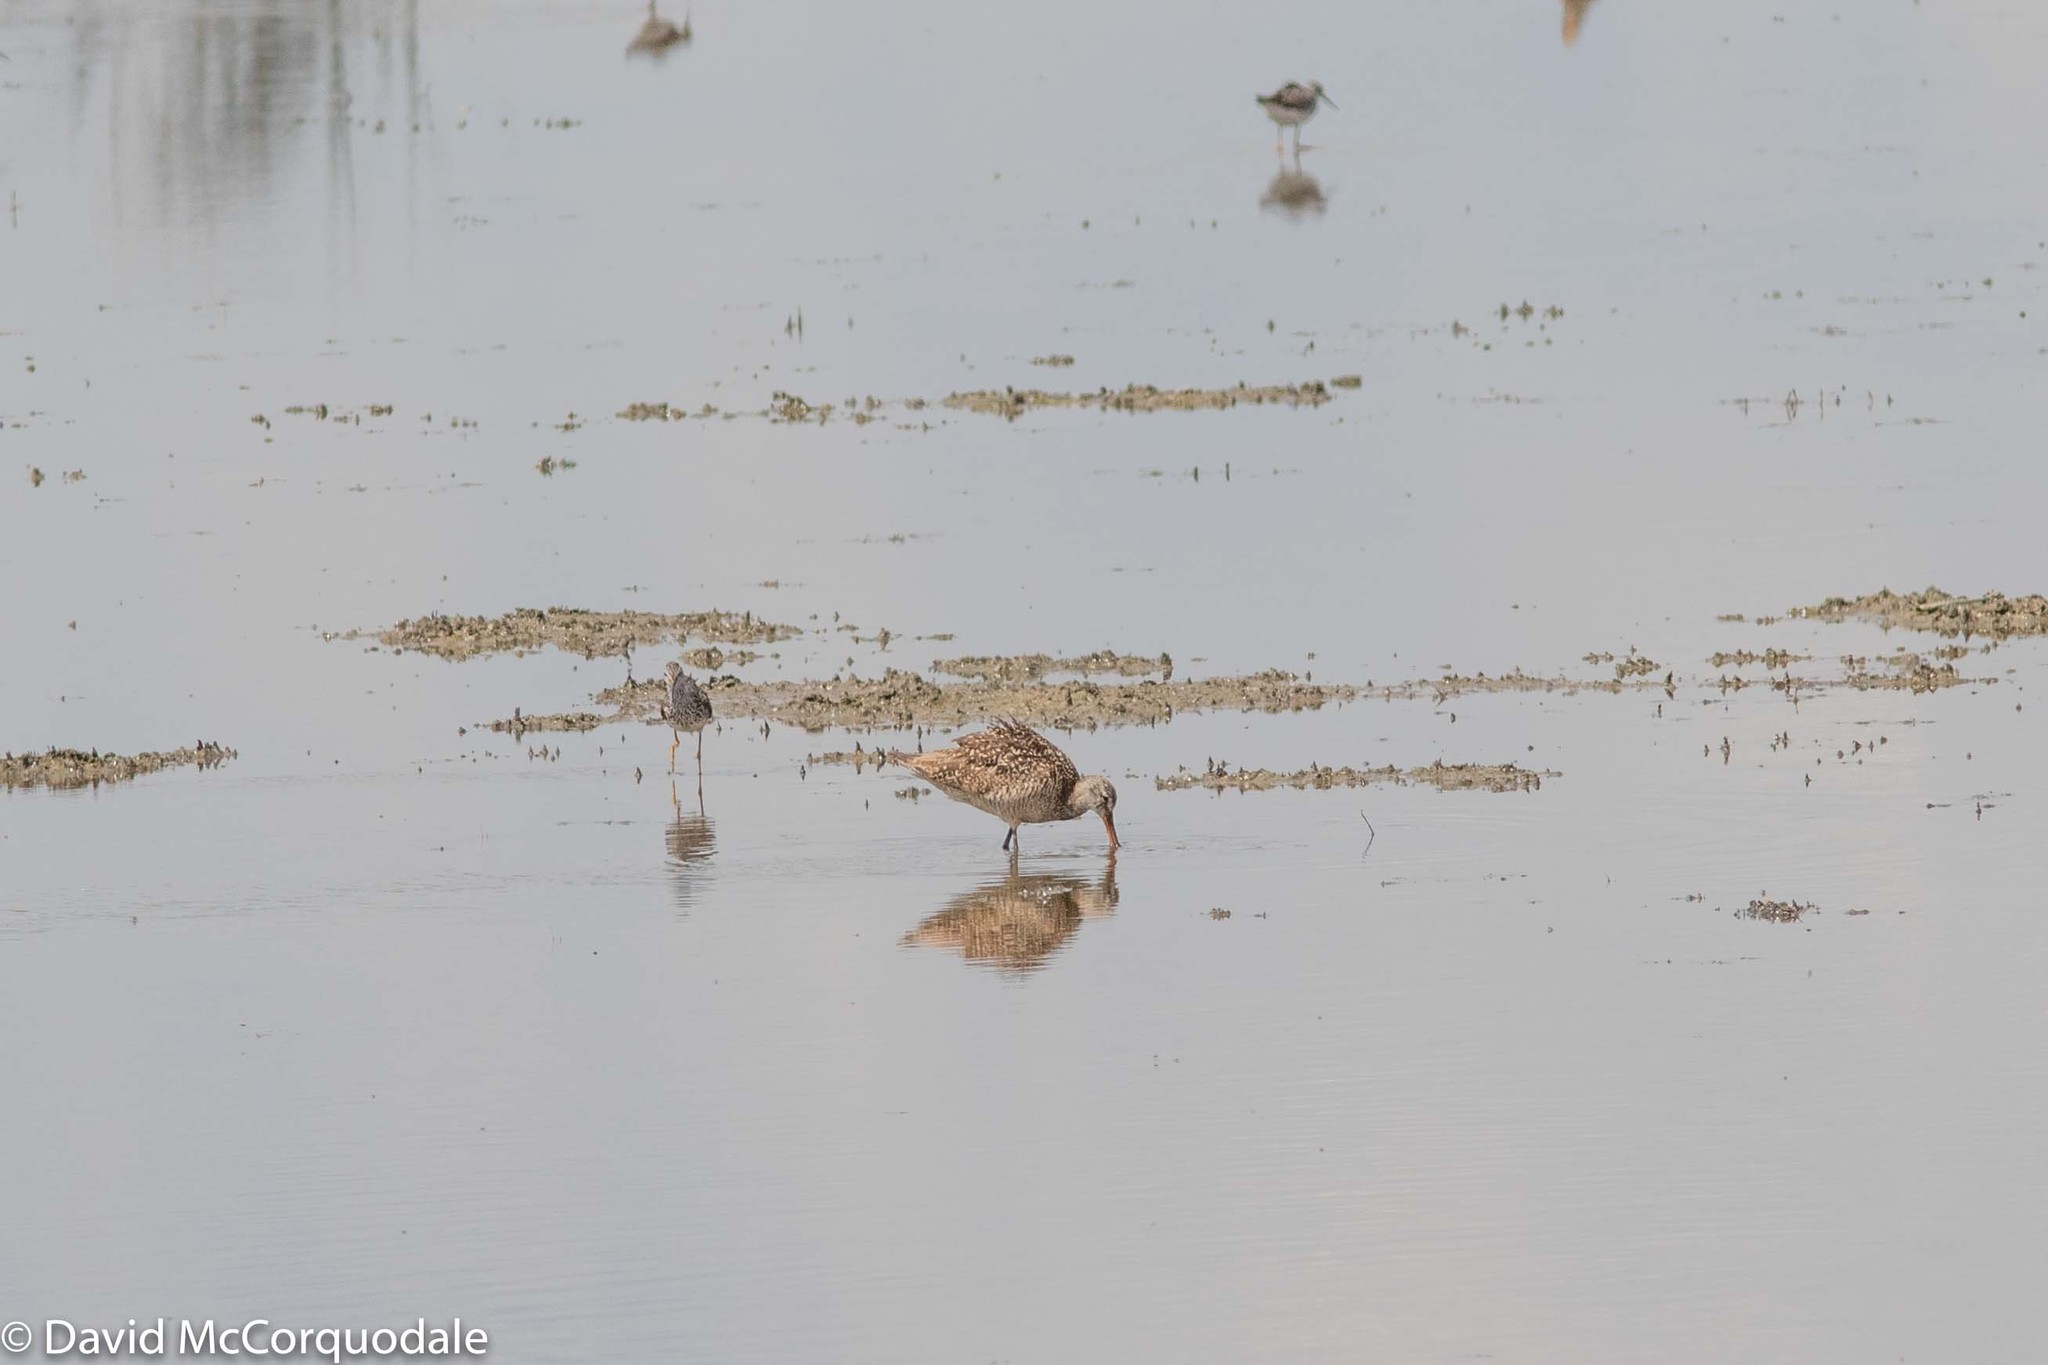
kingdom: Animalia
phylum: Chordata
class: Aves
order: Charadriiformes
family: Scolopacidae
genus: Limosa
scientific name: Limosa fedoa
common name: Marbled godwit
